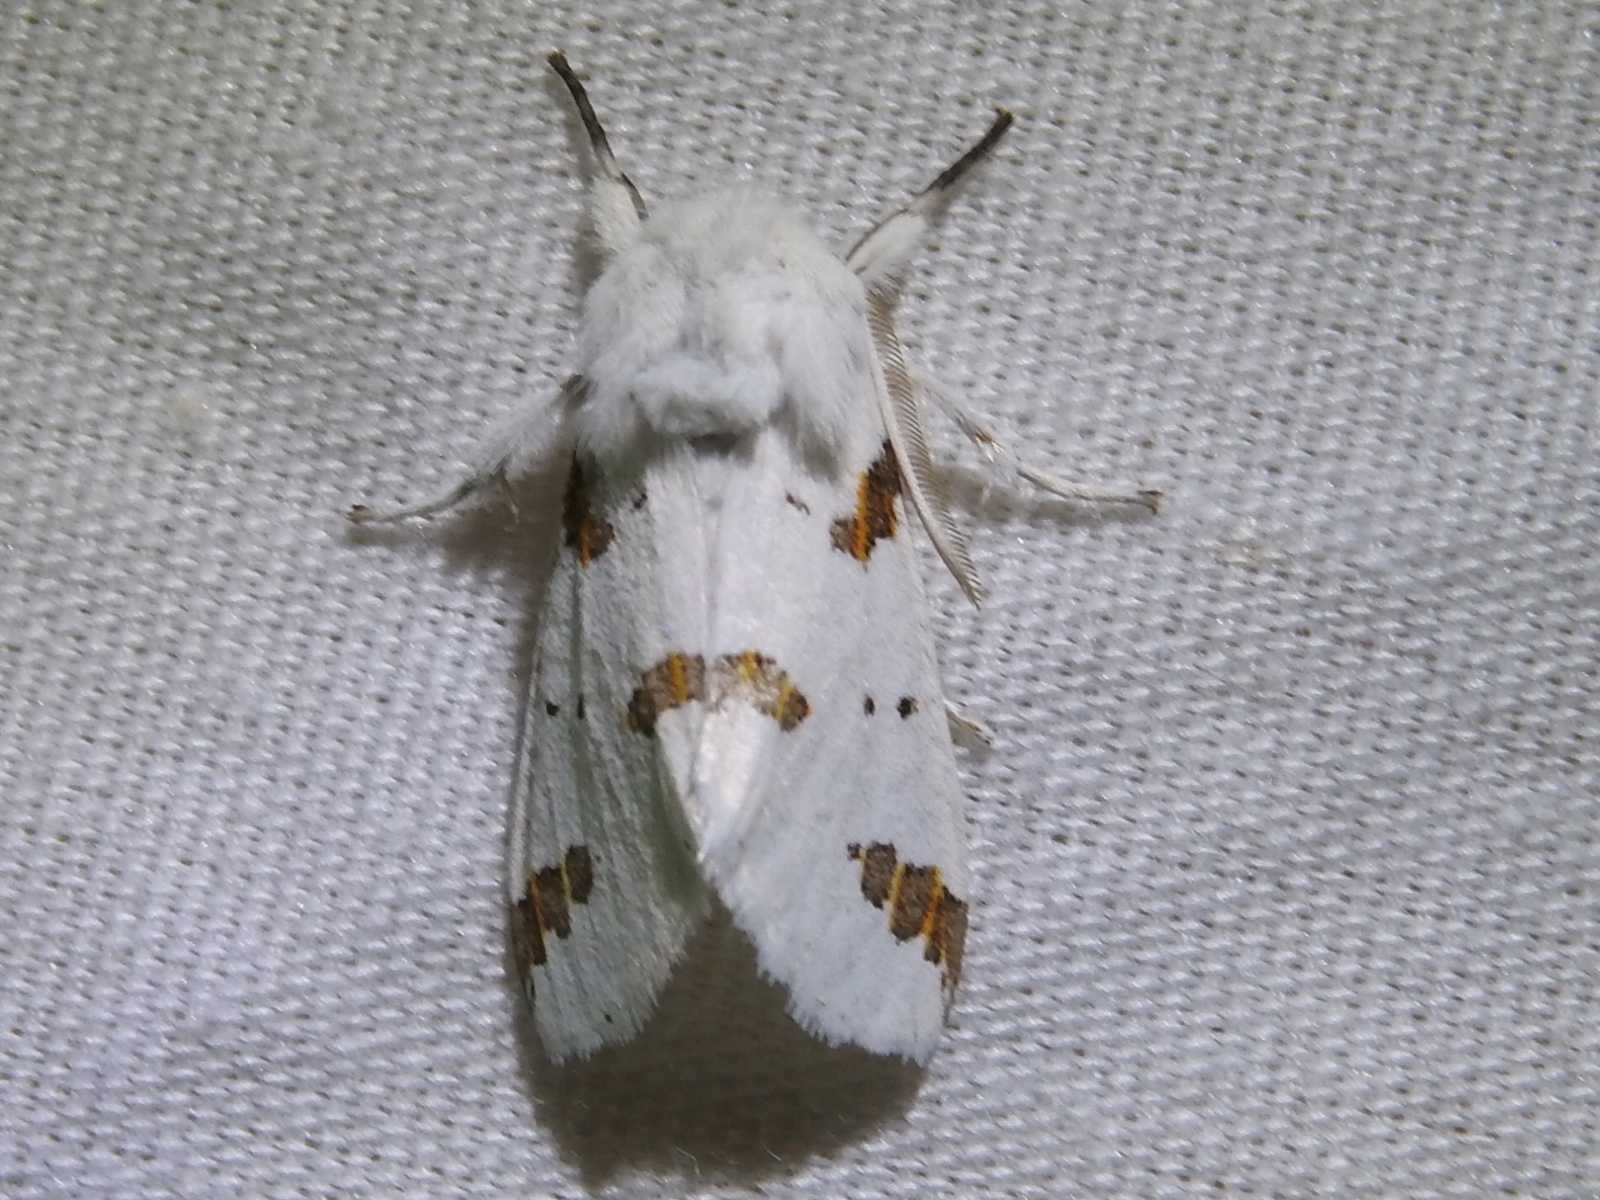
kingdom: Animalia
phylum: Arthropoda
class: Insecta
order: Lepidoptera
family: Erebidae
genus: Euerythra
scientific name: Euerythra trimaculata
